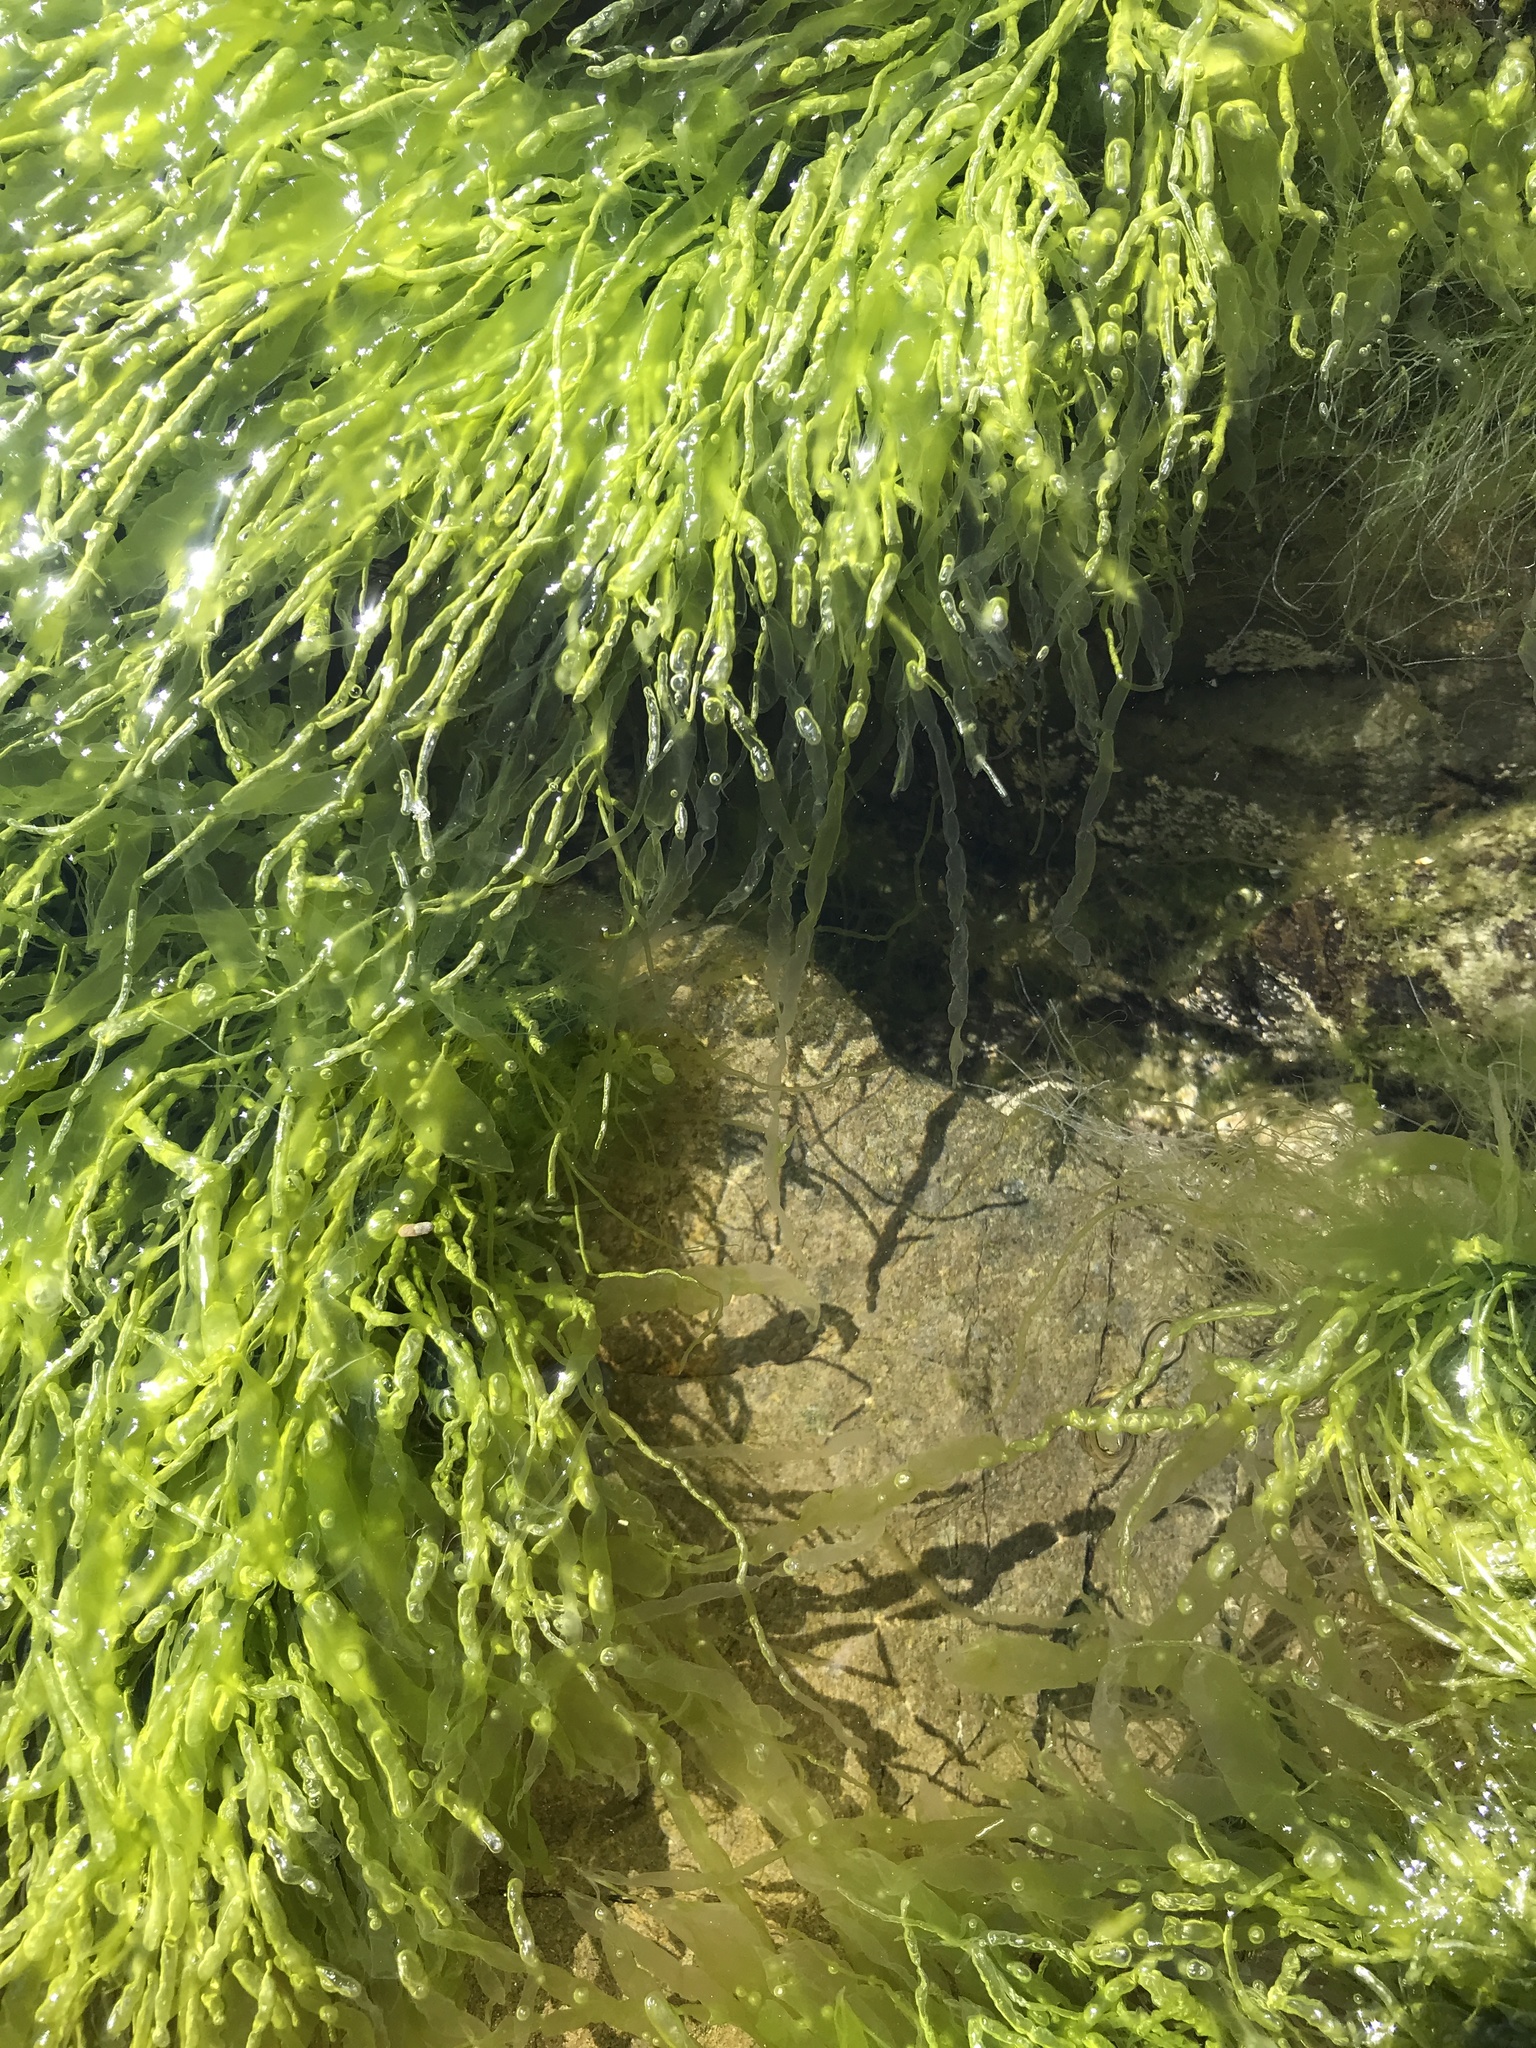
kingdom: Plantae
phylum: Chlorophyta
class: Ulvophyceae
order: Ulvales
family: Ulvaceae
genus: Ulva
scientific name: Ulva intestinalis
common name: Gut weed
